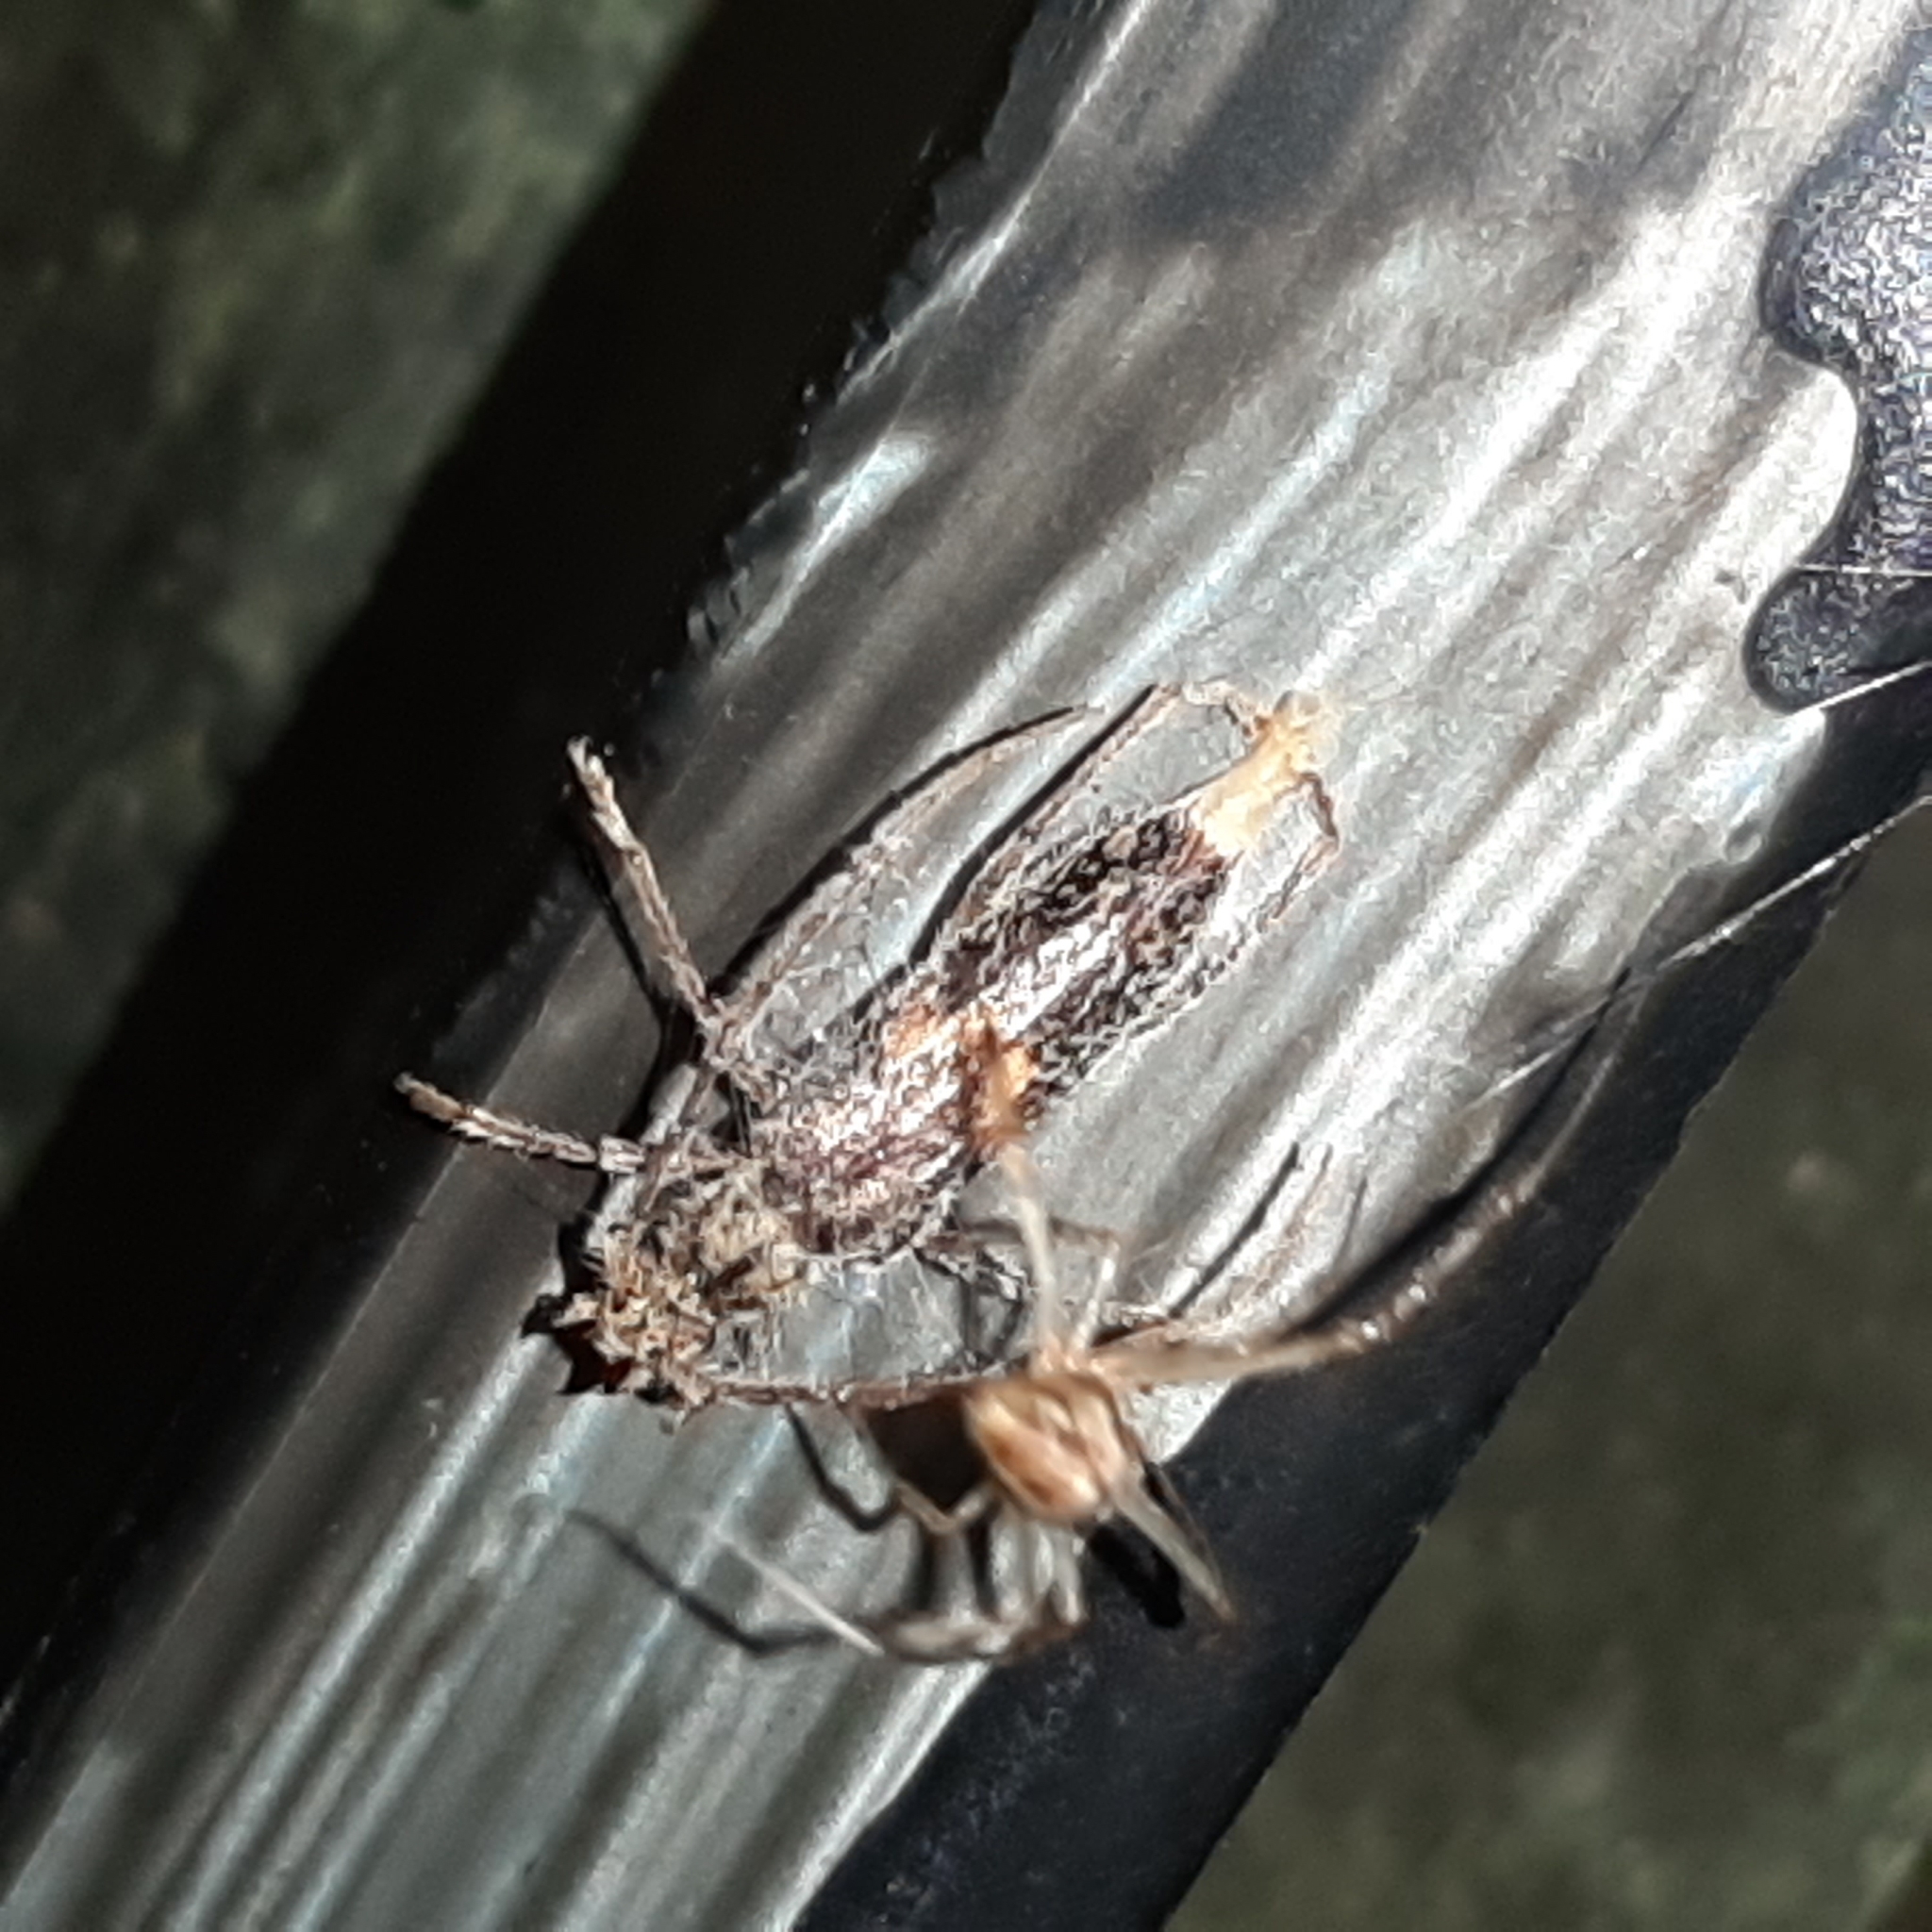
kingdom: Animalia
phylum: Arthropoda
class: Insecta
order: Coleoptera
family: Cerambycidae
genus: Eurysthea
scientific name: Eurysthea cribripennis
